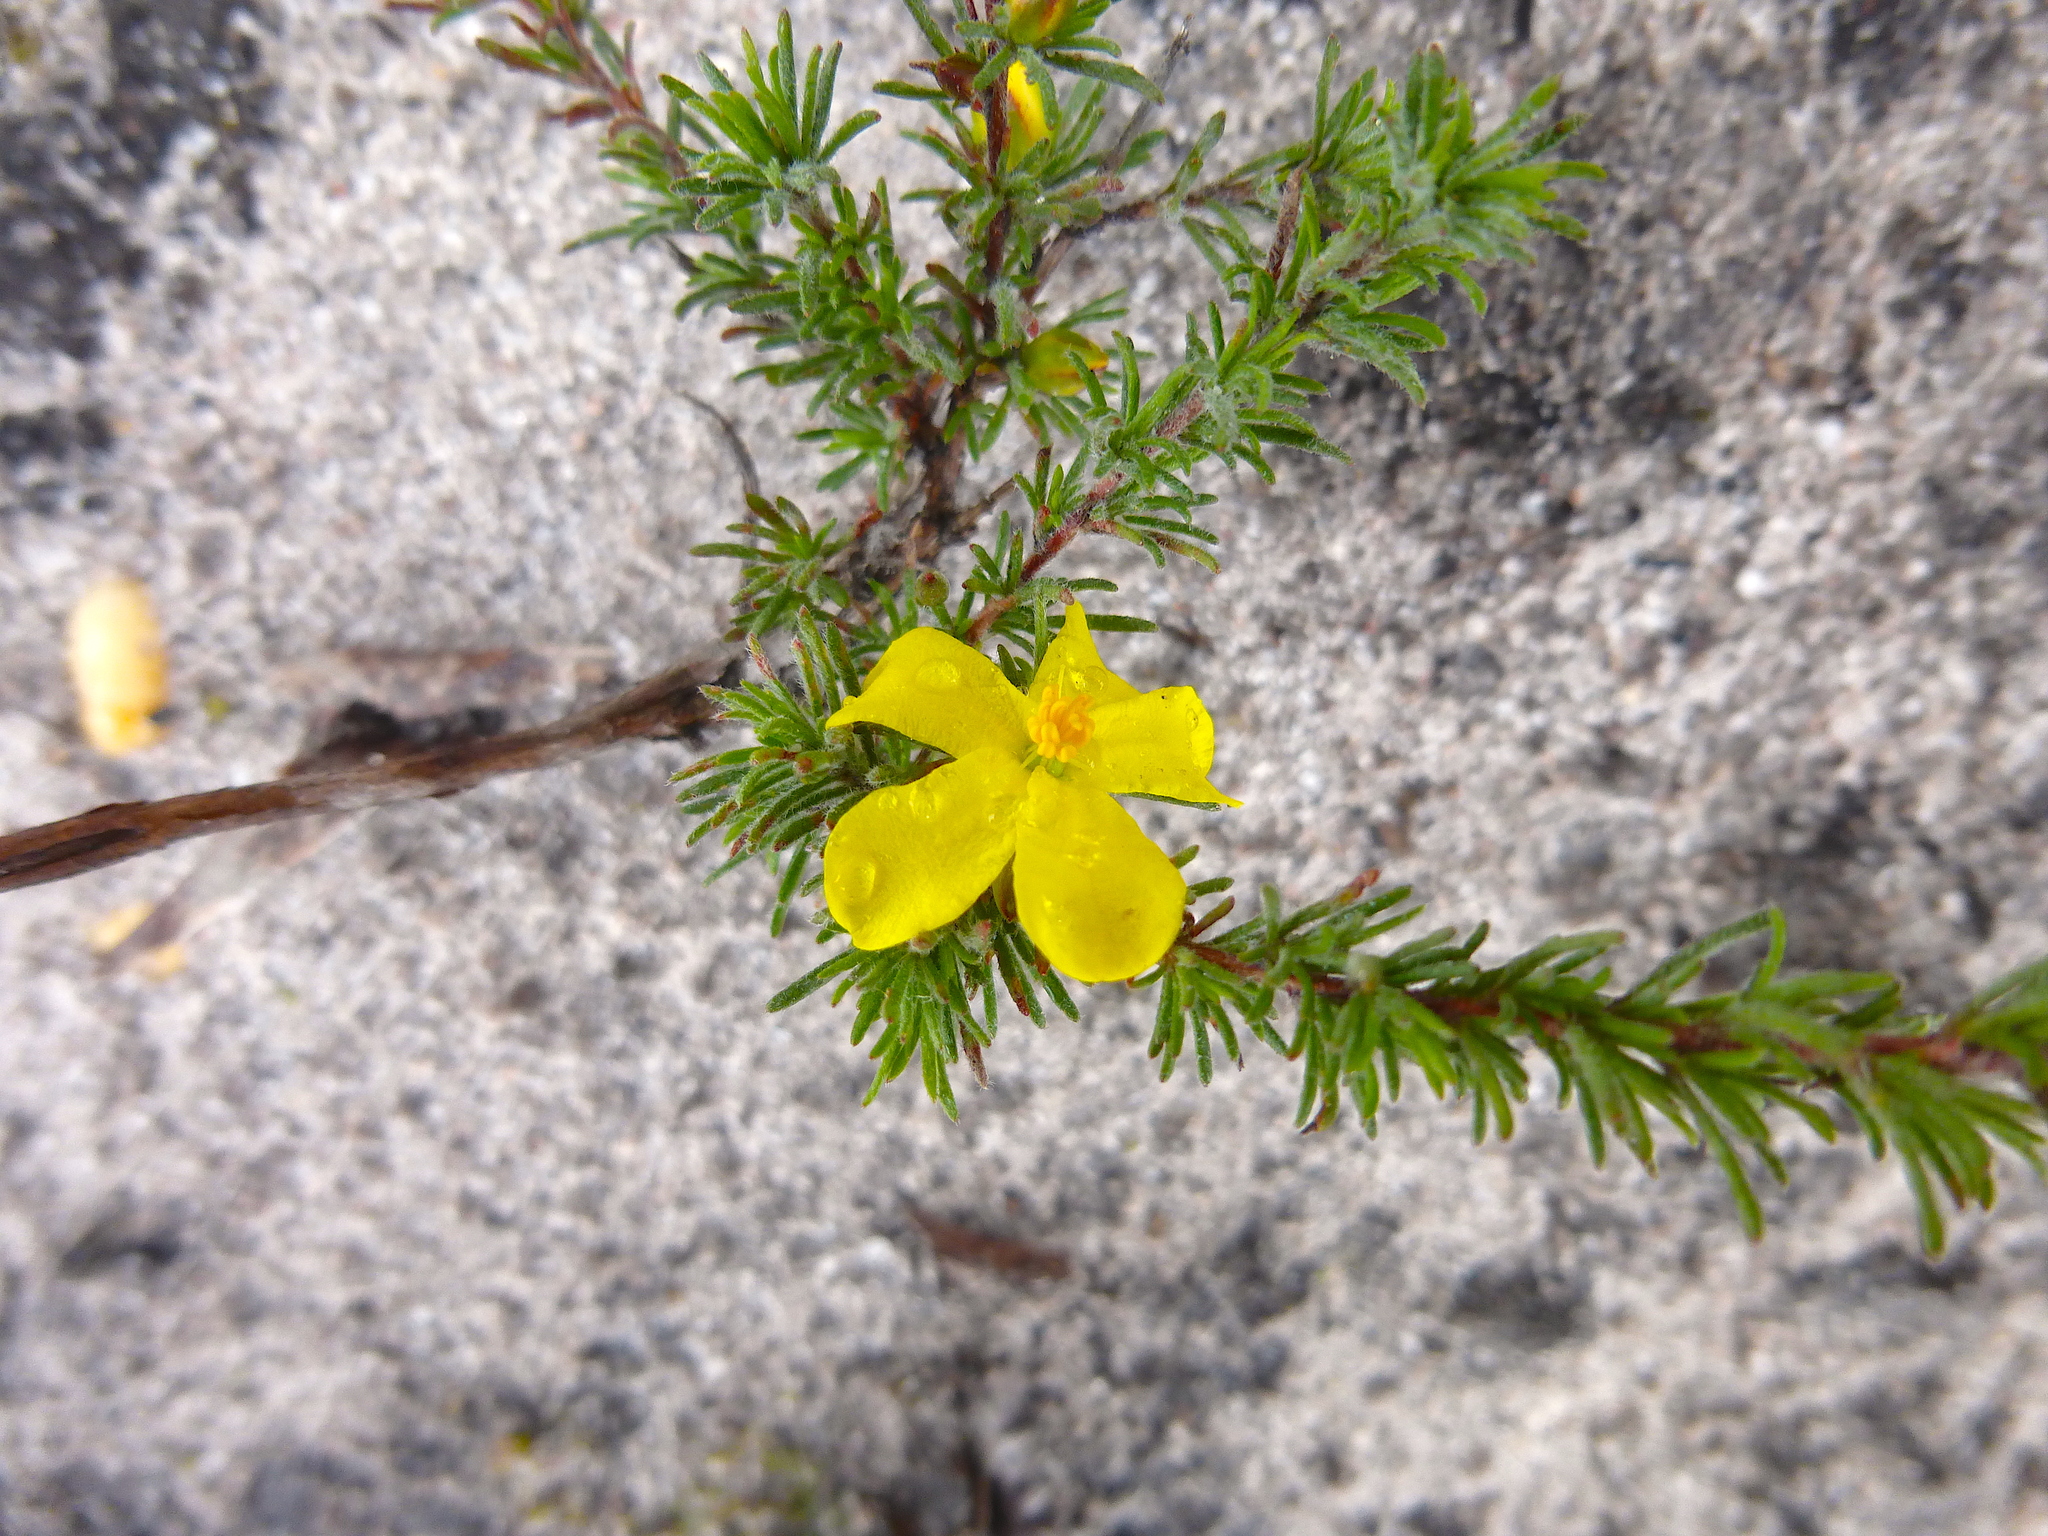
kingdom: Plantae
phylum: Tracheophyta
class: Magnoliopsida
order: Dilleniales
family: Dilleniaceae
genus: Hibbertia
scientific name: Hibbertia prostrata
